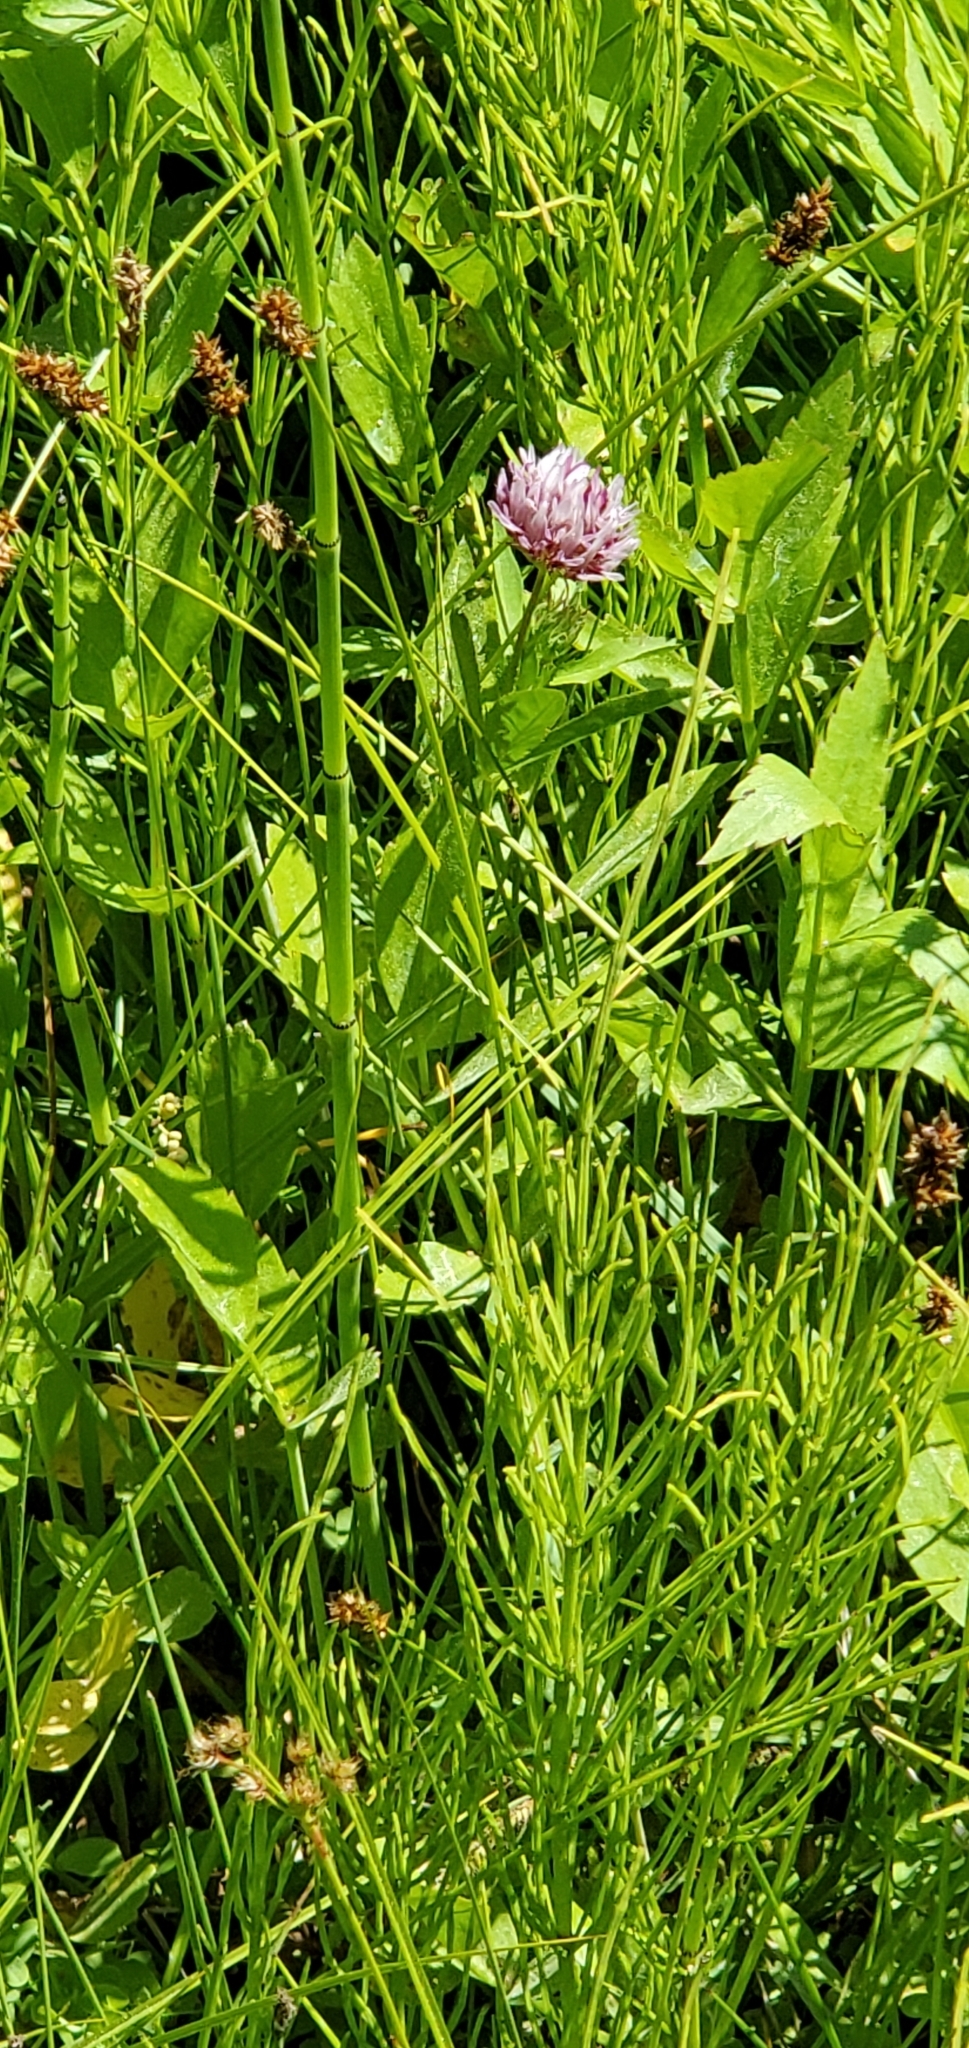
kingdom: Plantae
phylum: Tracheophyta
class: Magnoliopsida
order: Fabales
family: Fabaceae
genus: Trifolium
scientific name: Trifolium wormskioldii
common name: Springbank clover
